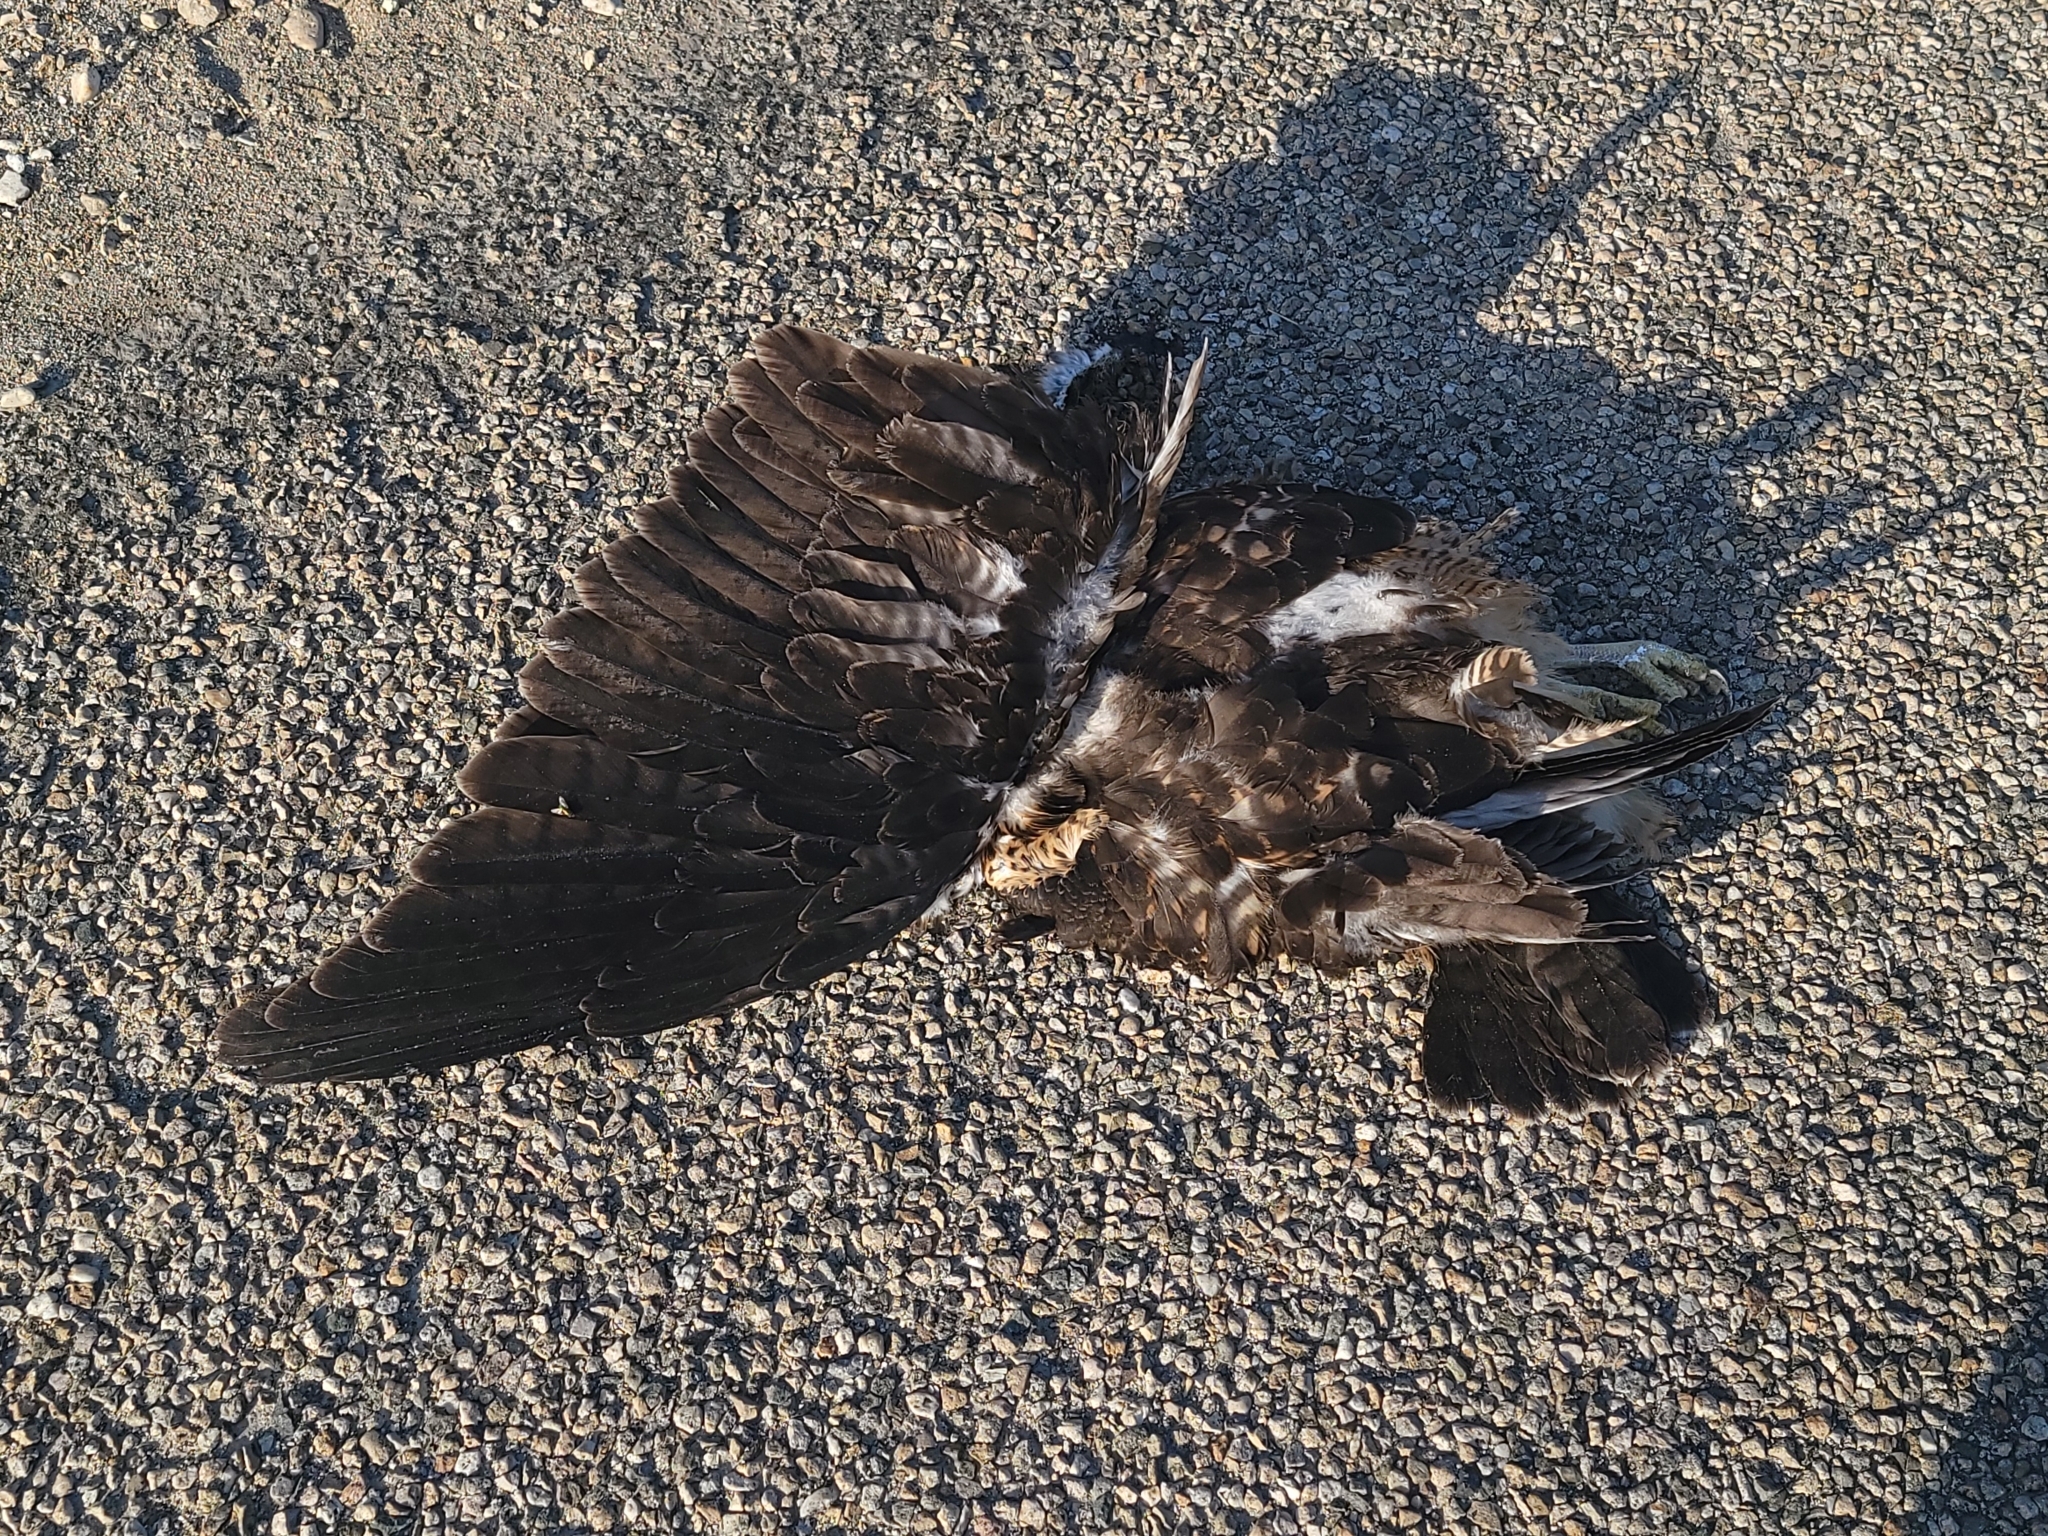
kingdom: Animalia
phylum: Chordata
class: Aves
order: Accipitriformes
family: Accipitridae
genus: Buteo
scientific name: Buteo swainsoni
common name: Swainson's hawk
